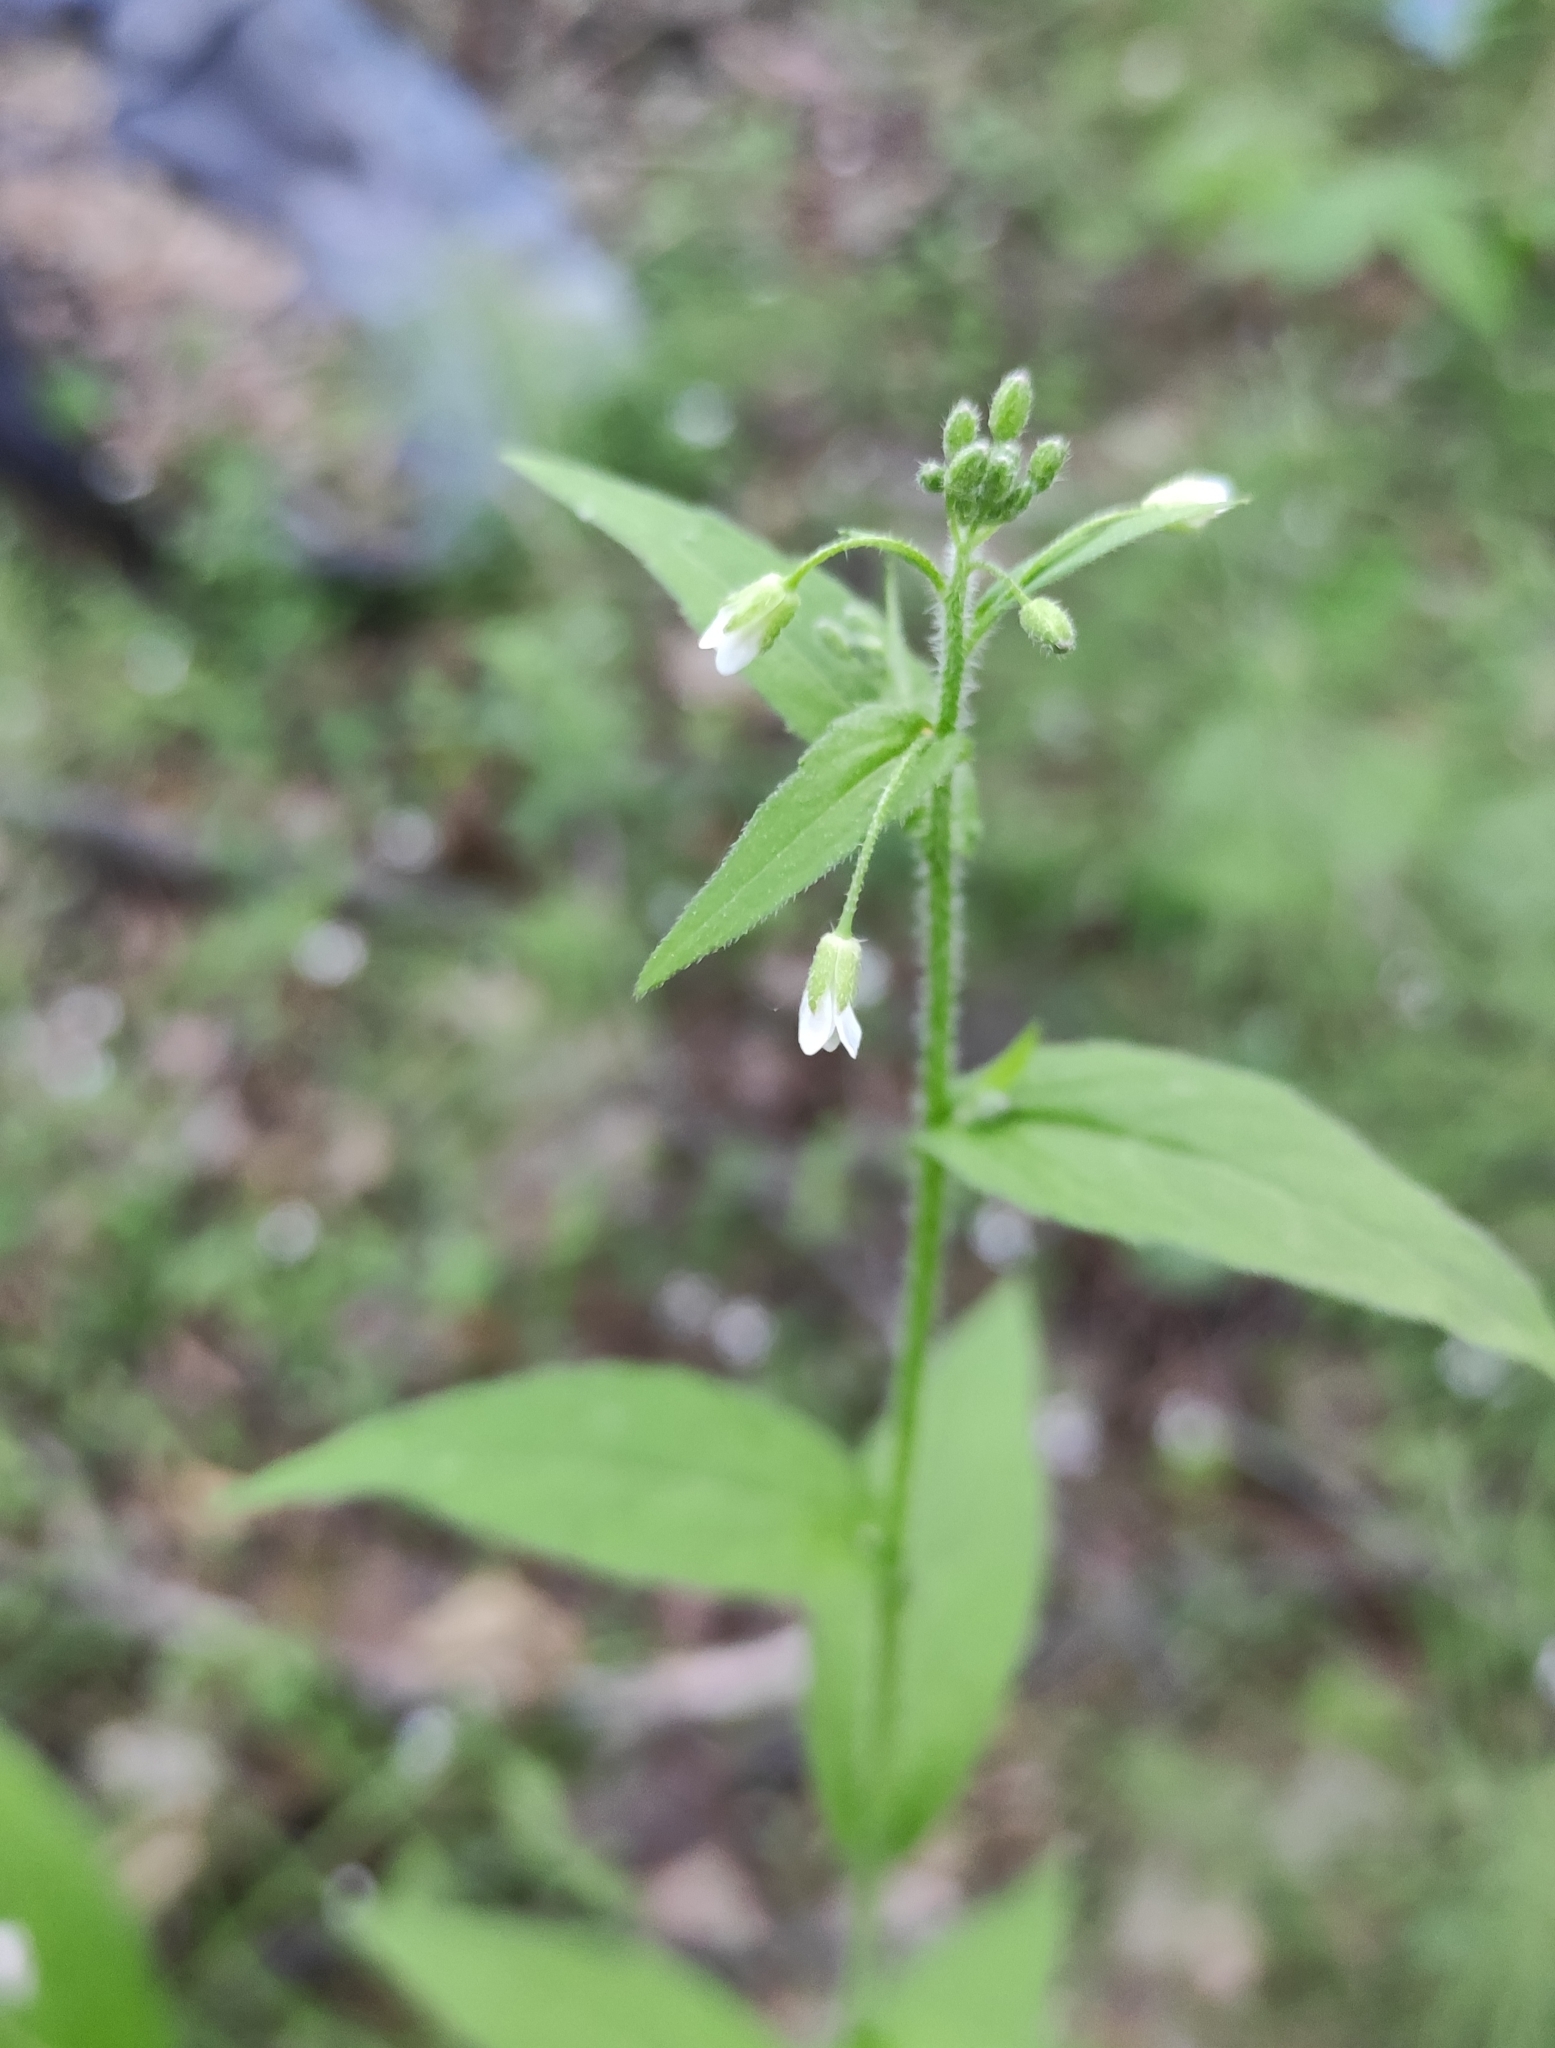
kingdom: Plantae
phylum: Tracheophyta
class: Magnoliopsida
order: Brassicales
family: Brassicaceae
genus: Catolobus
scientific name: Catolobus pendulus
